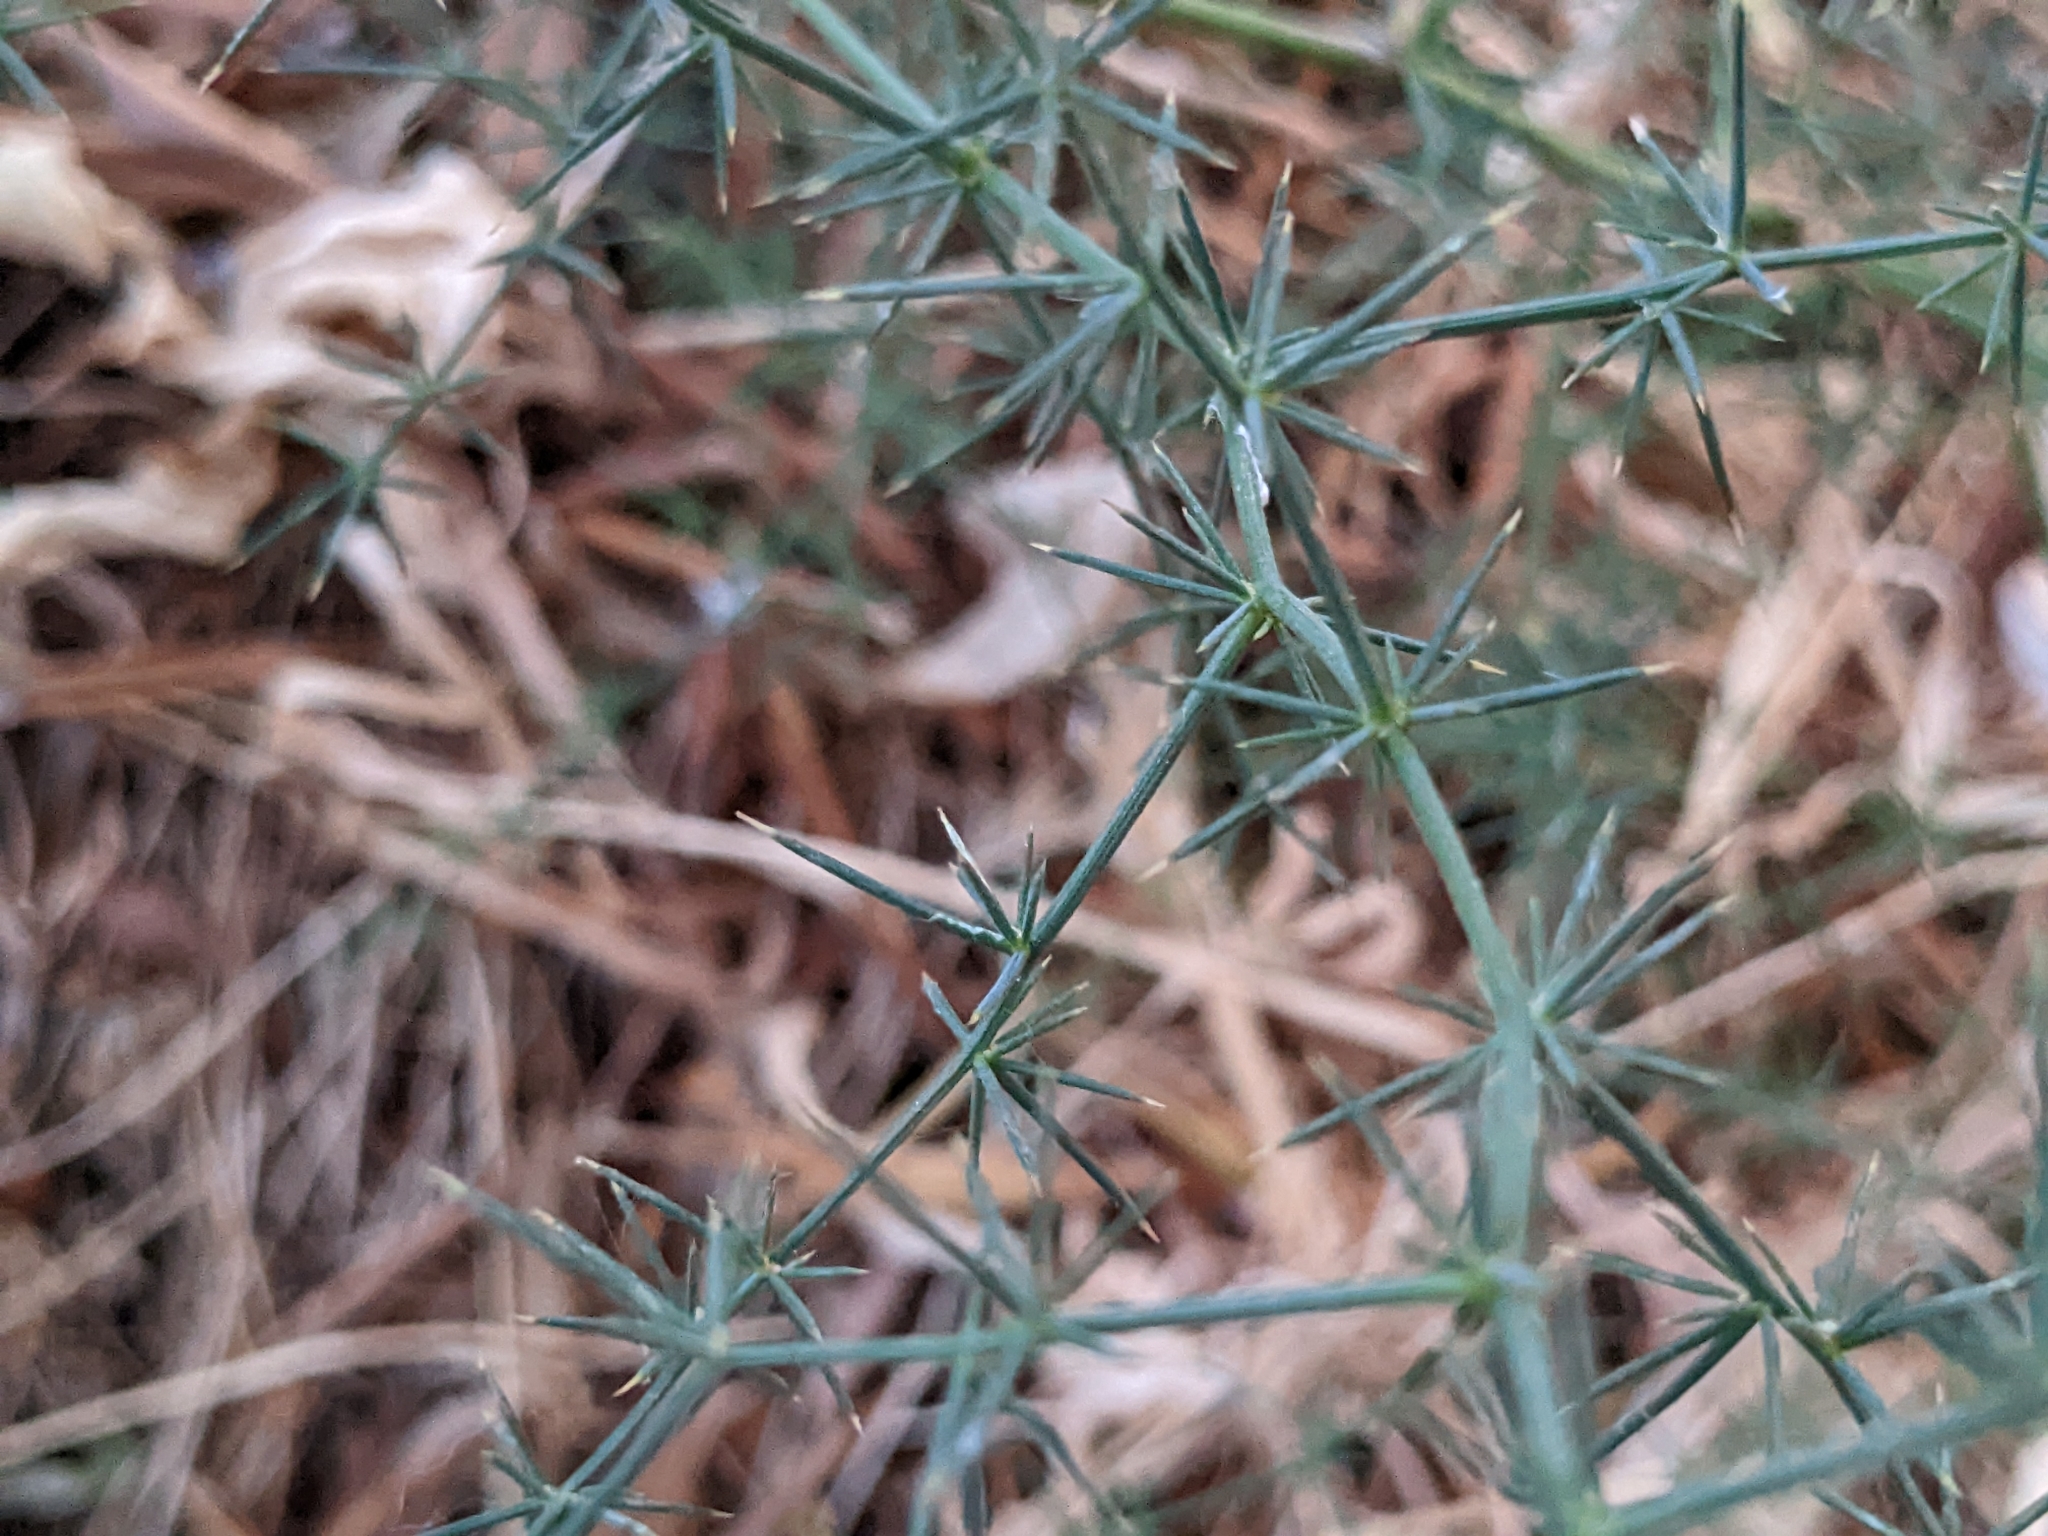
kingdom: Plantae
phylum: Tracheophyta
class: Liliopsida
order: Asparagales
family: Asparagaceae
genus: Asparagus
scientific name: Asparagus acutifolius
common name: Wild asparagus
